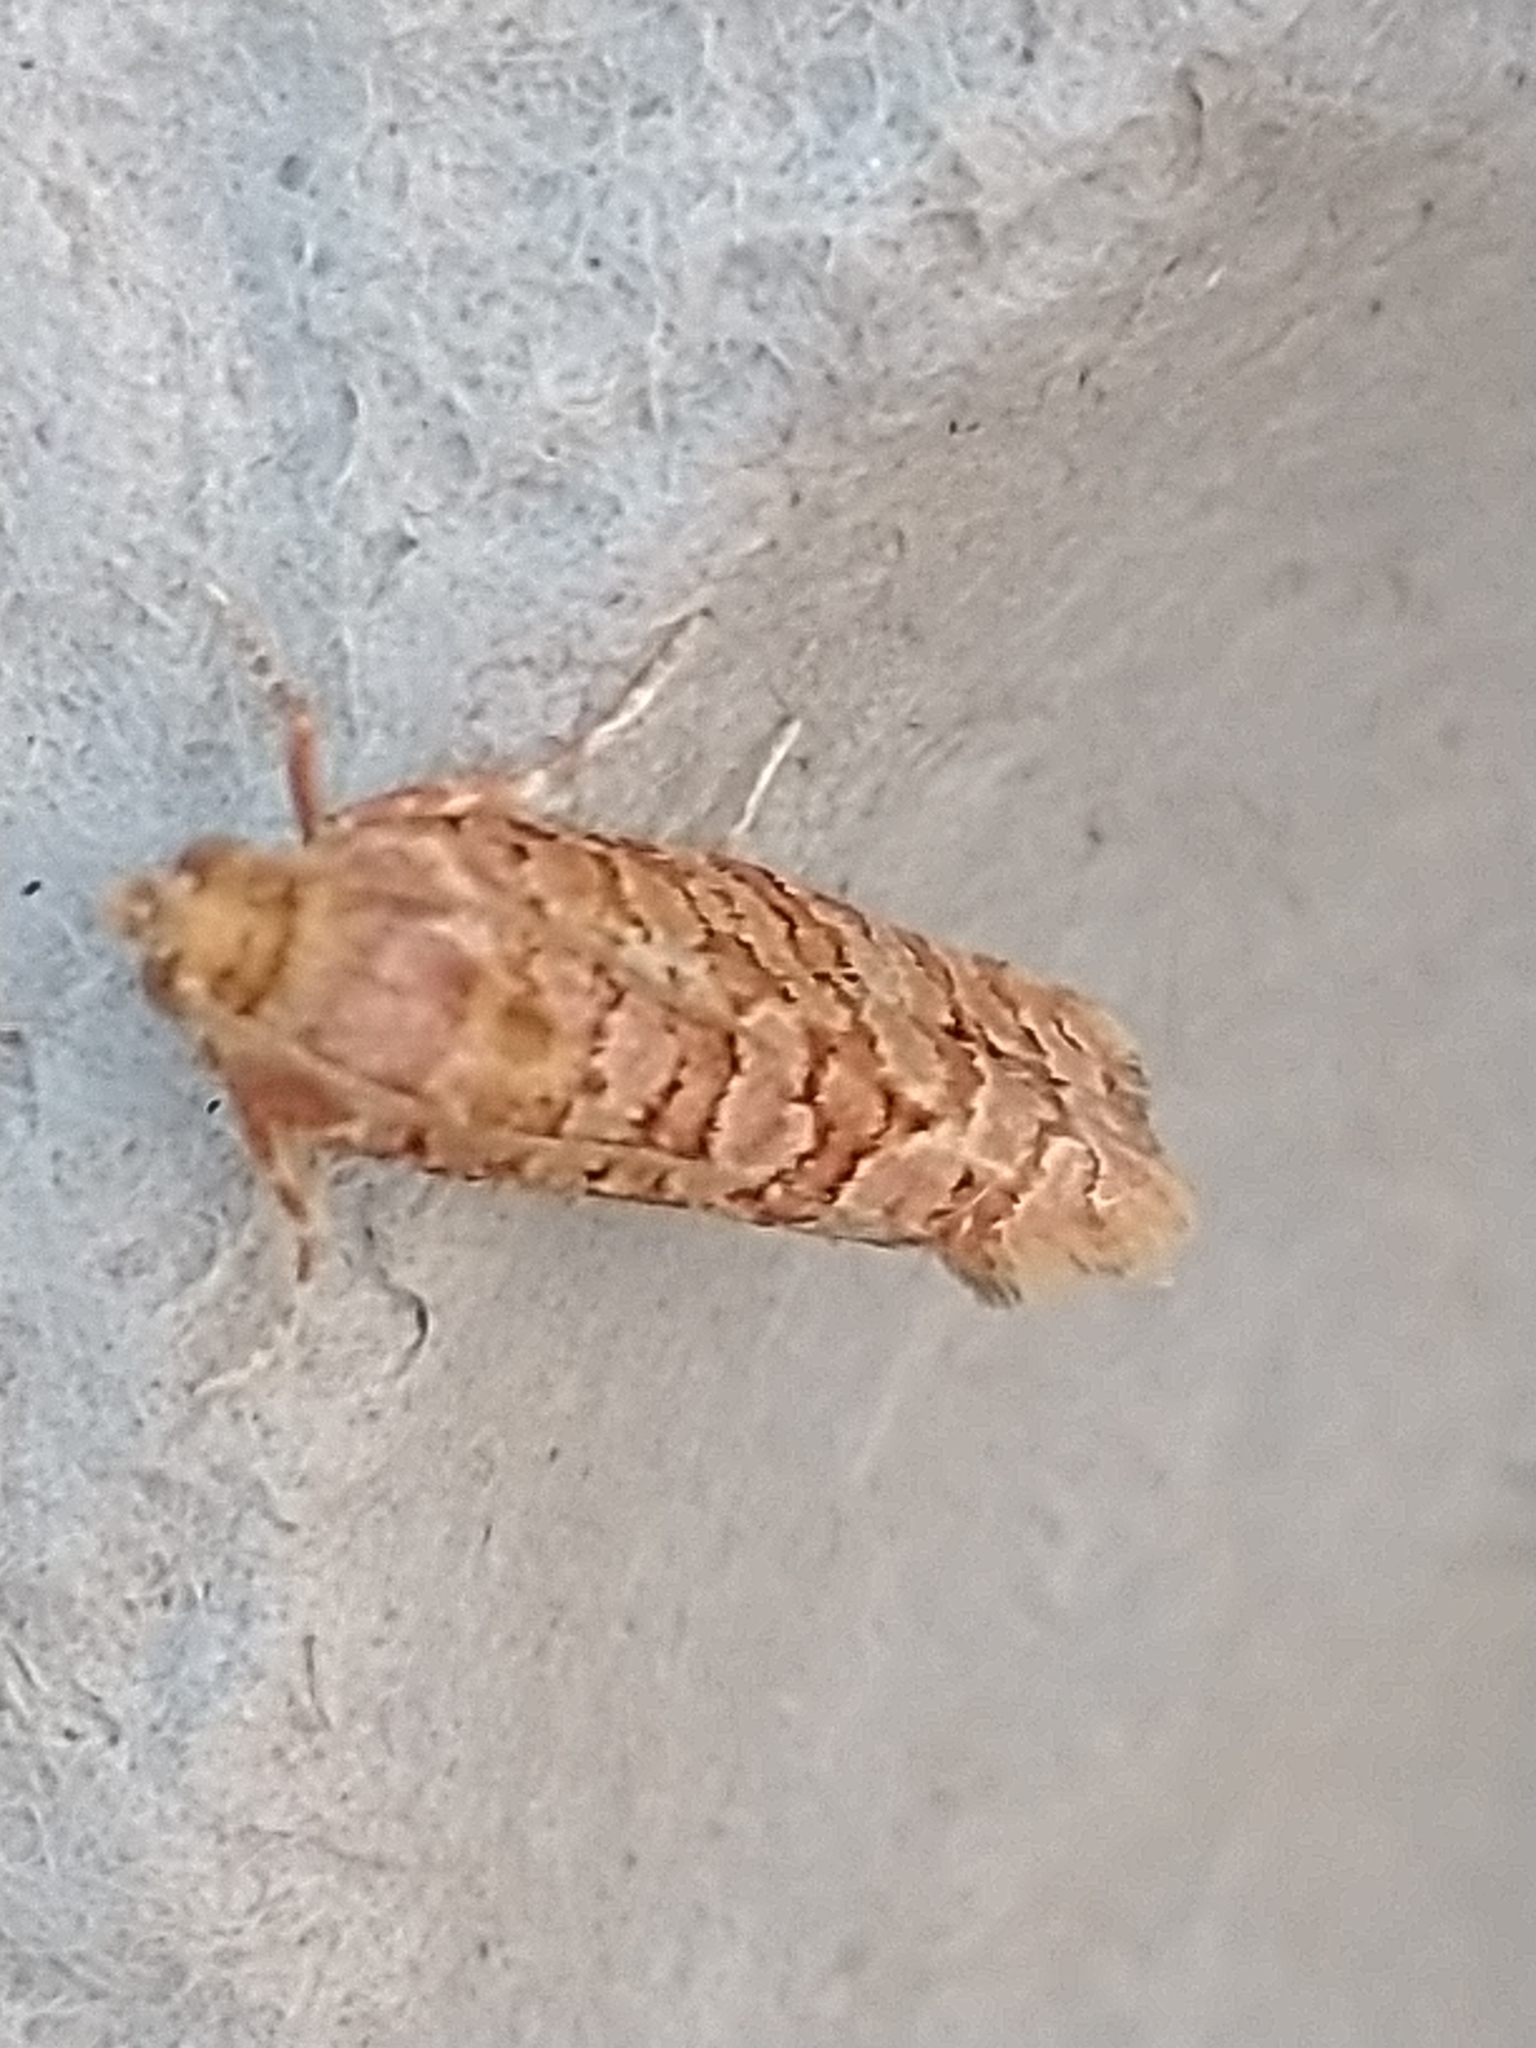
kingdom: Animalia
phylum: Arthropoda
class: Insecta
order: Lepidoptera
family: Tortricidae
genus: Lozotaeniodes
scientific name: Lozotaeniodes formosana
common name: Orange pine twist
